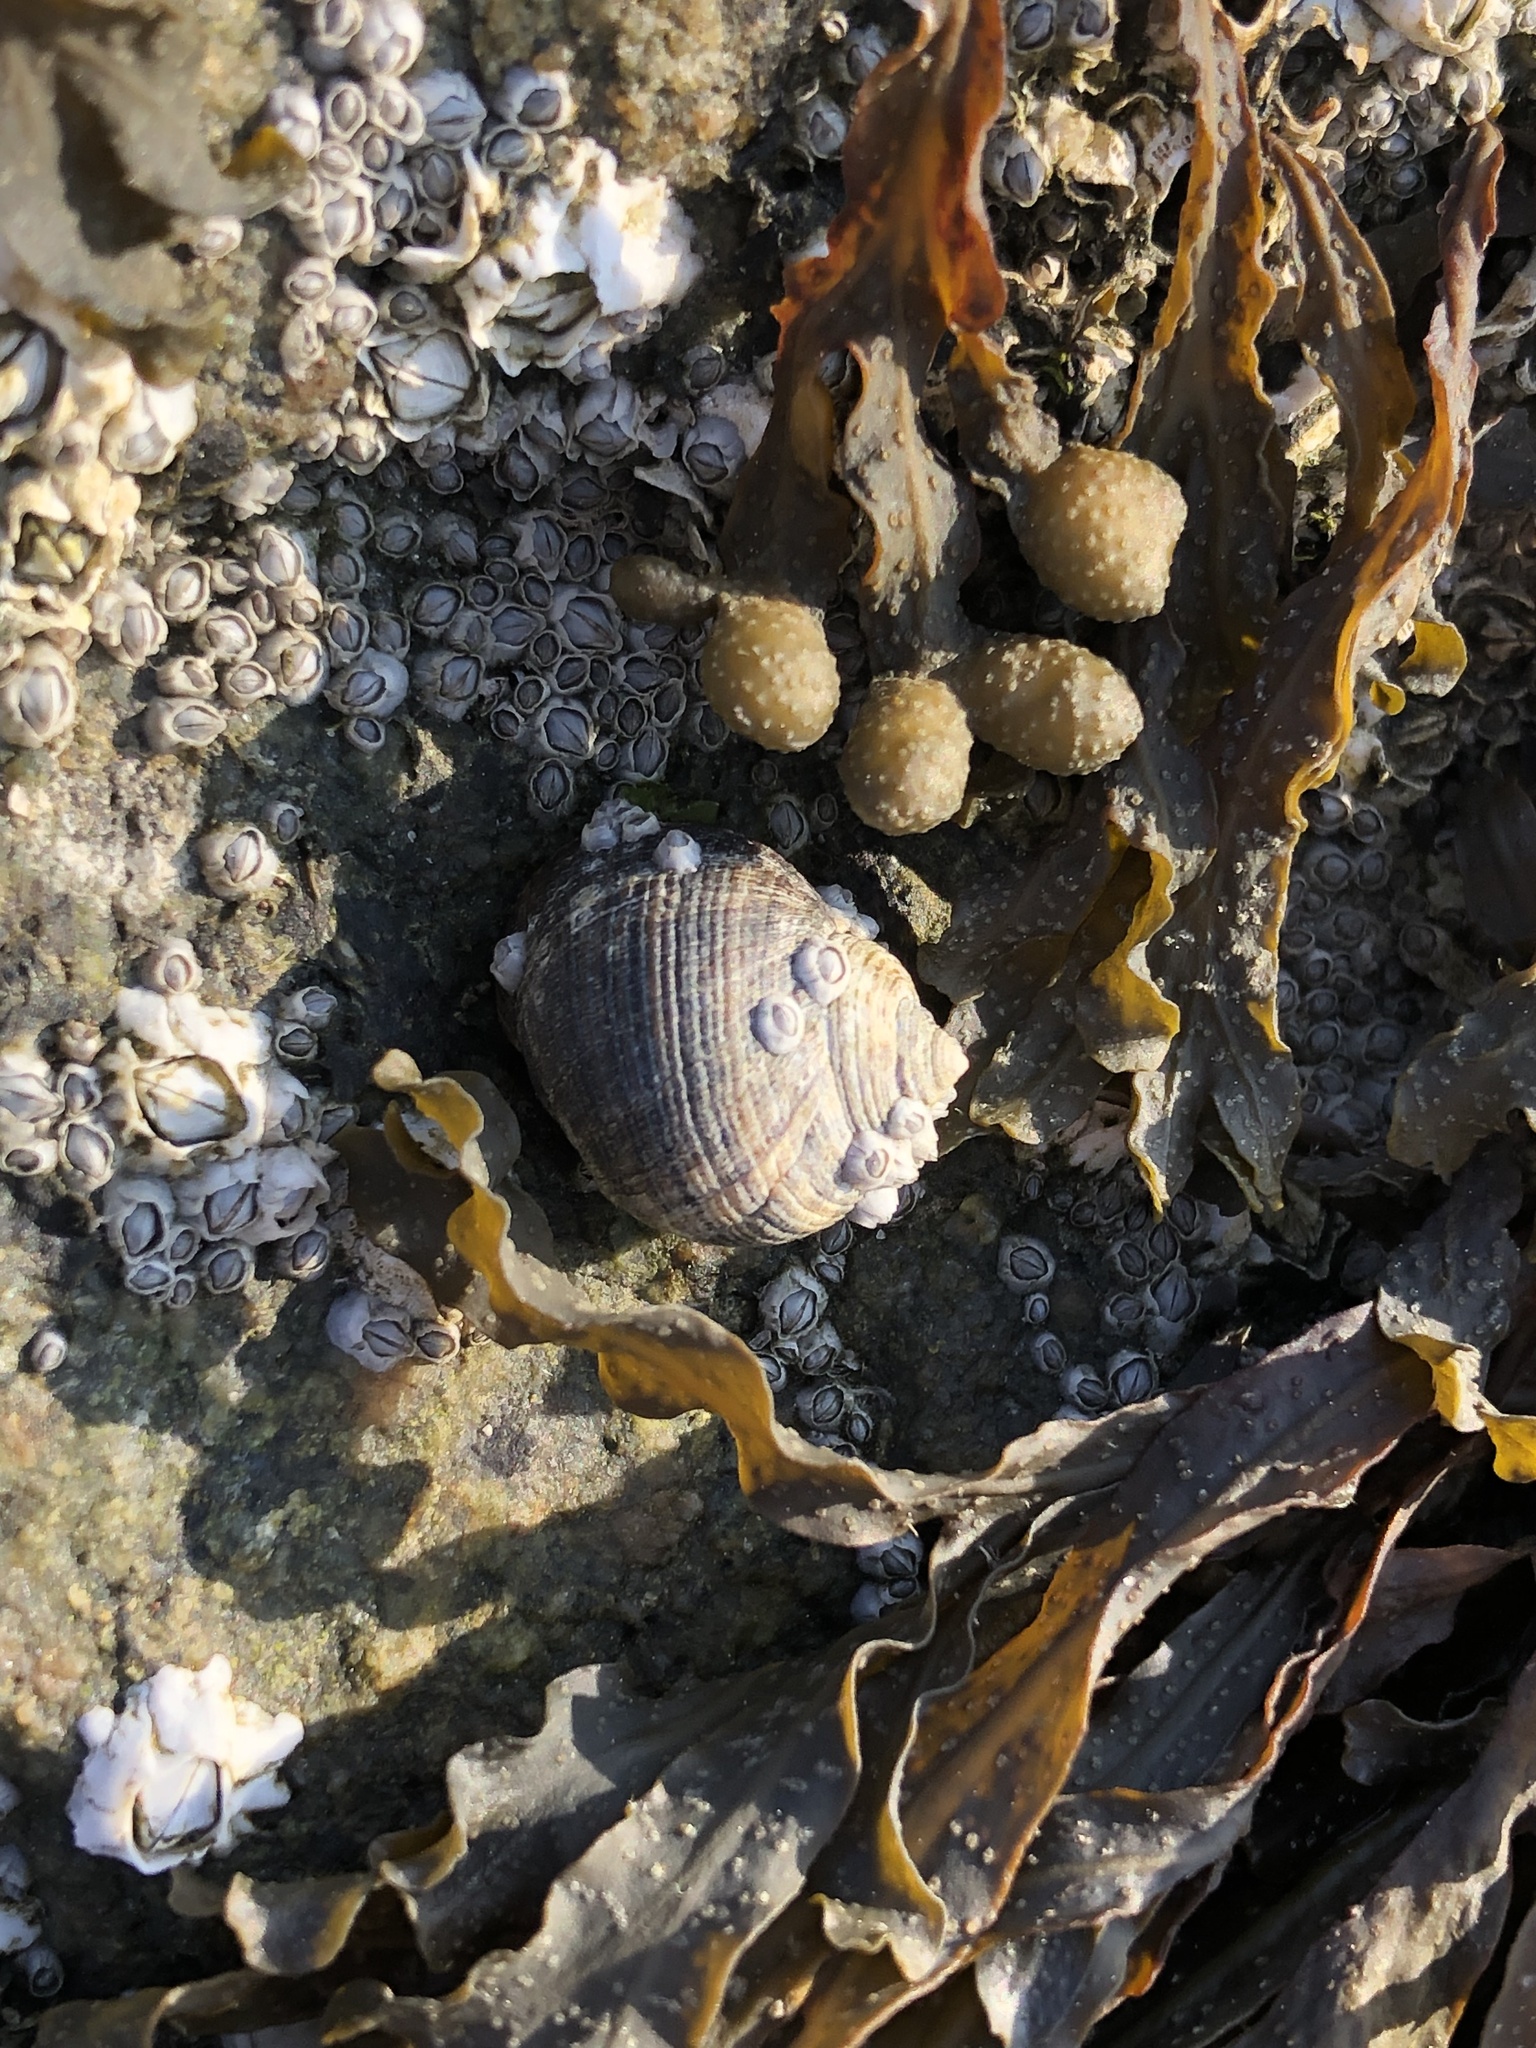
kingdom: Animalia
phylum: Mollusca
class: Gastropoda
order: Littorinimorpha
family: Littorinidae
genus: Littorina
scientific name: Littorina littorea
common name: Common periwinkle
